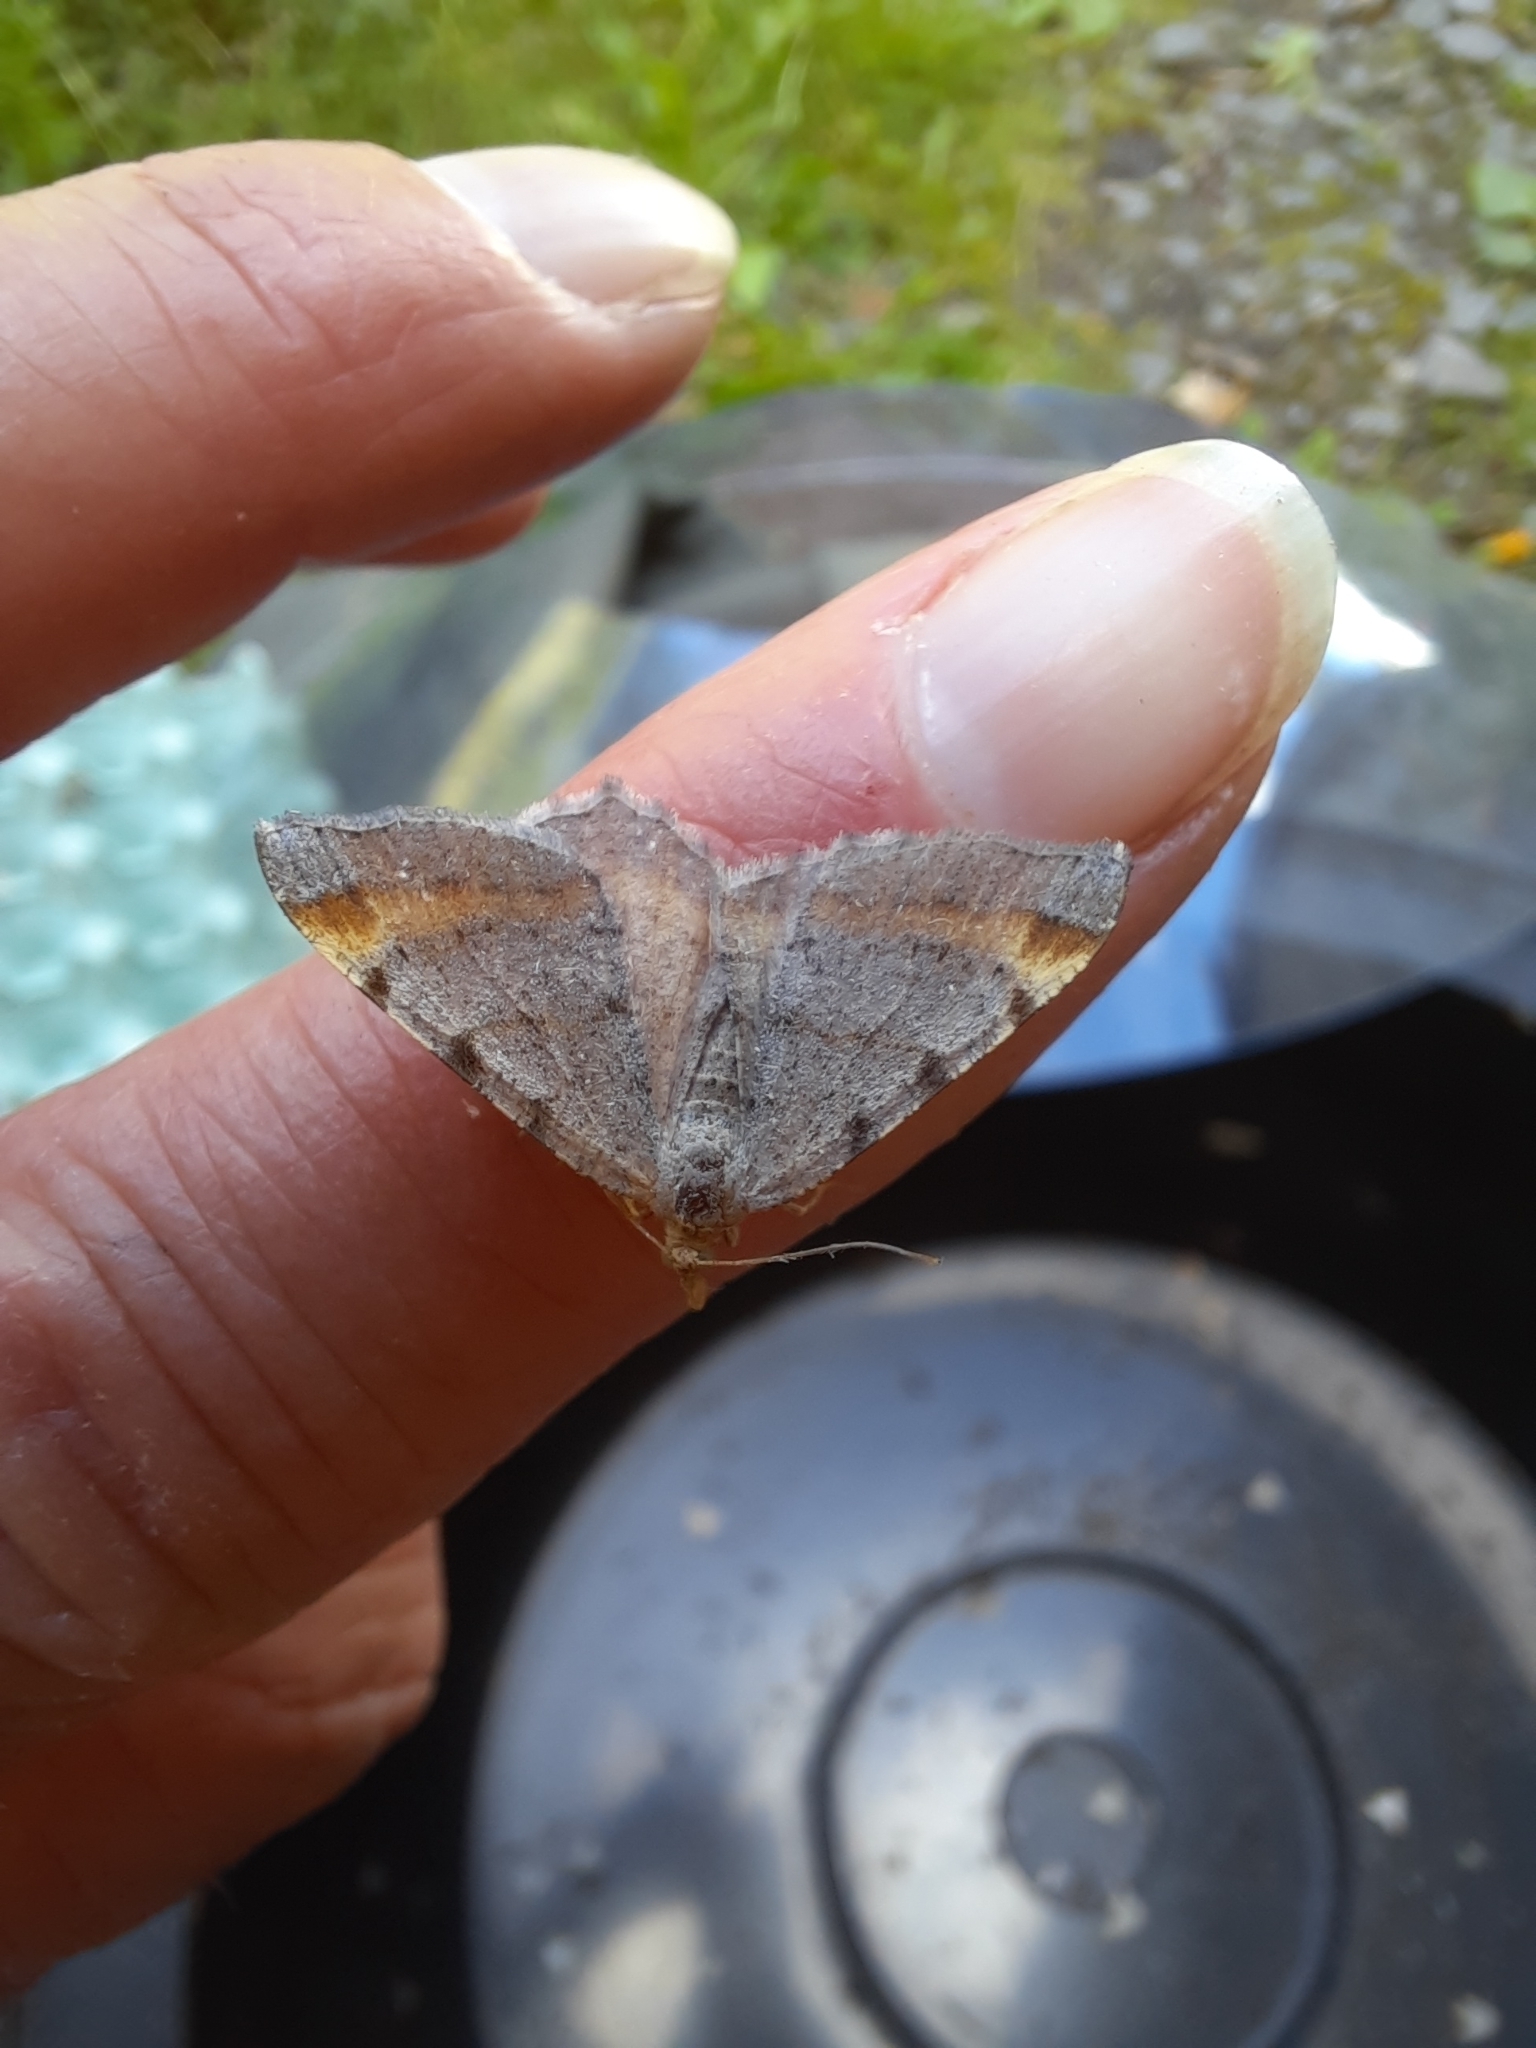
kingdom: Animalia
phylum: Arthropoda
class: Insecta
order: Lepidoptera
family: Geometridae
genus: Macaria
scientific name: Macaria liturata
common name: Tawny-barred angle
